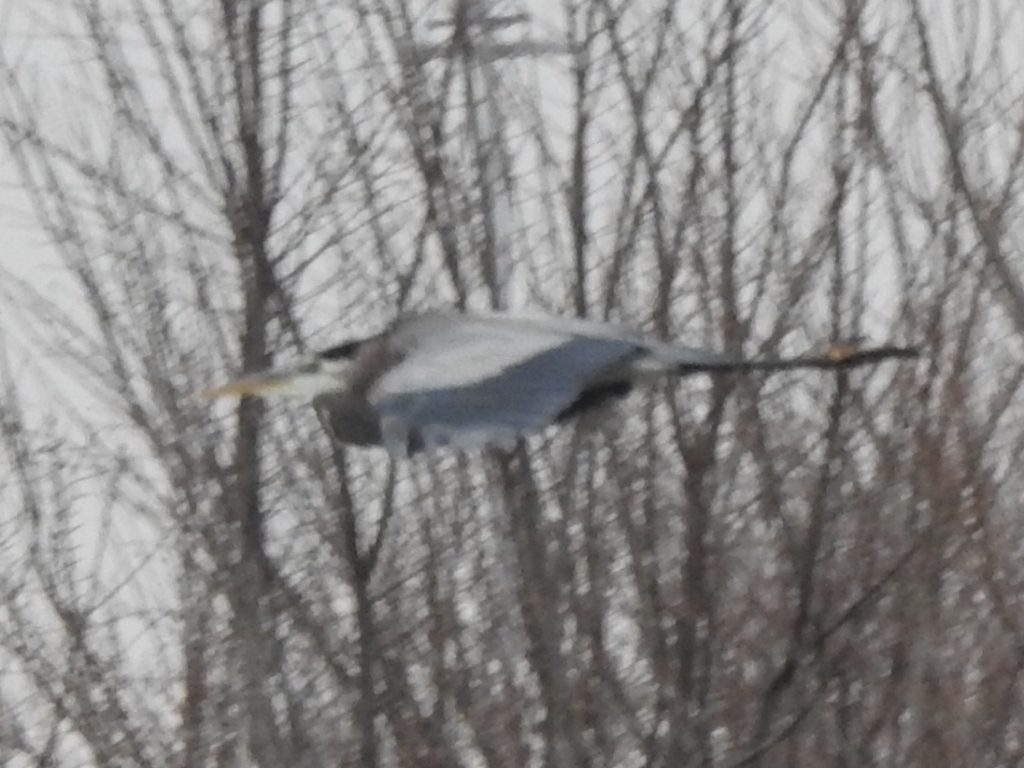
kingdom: Animalia
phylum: Chordata
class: Aves
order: Pelecaniformes
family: Ardeidae
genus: Ardea
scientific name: Ardea herodias
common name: Great blue heron
